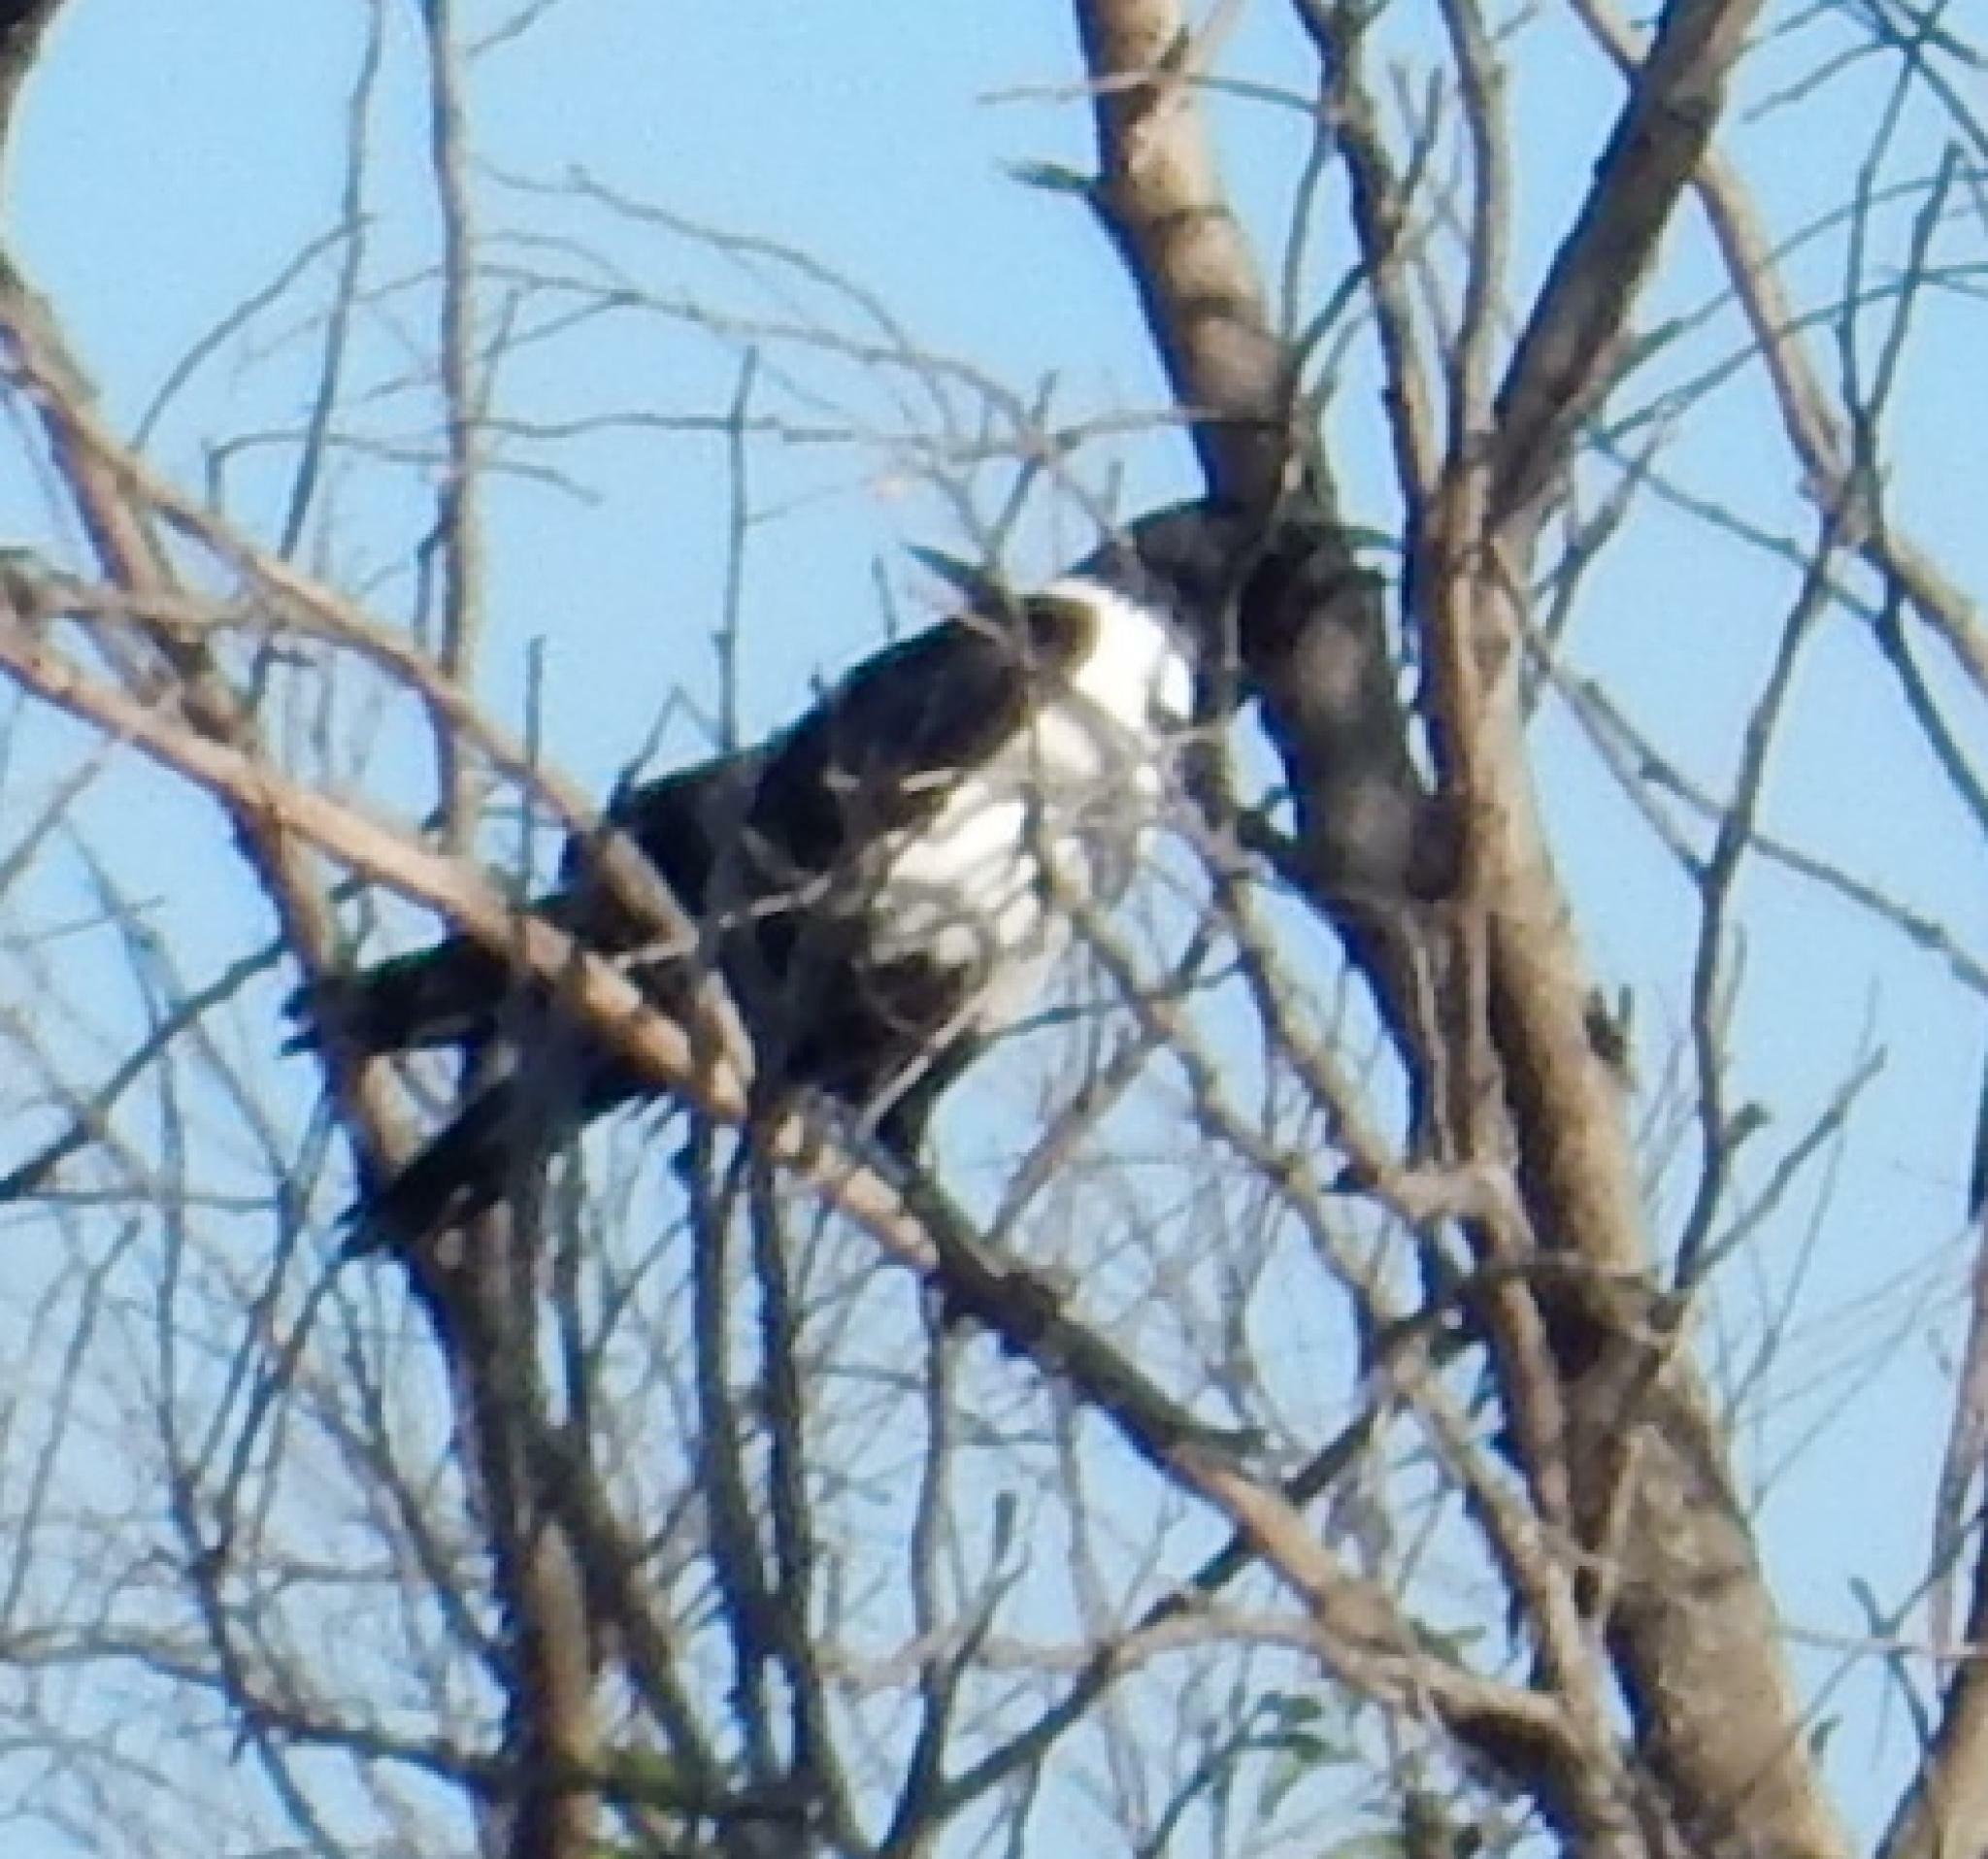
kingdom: Animalia
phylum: Chordata
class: Aves
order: Passeriformes
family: Corvidae
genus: Corvus
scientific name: Corvus albus
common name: Pied crow
